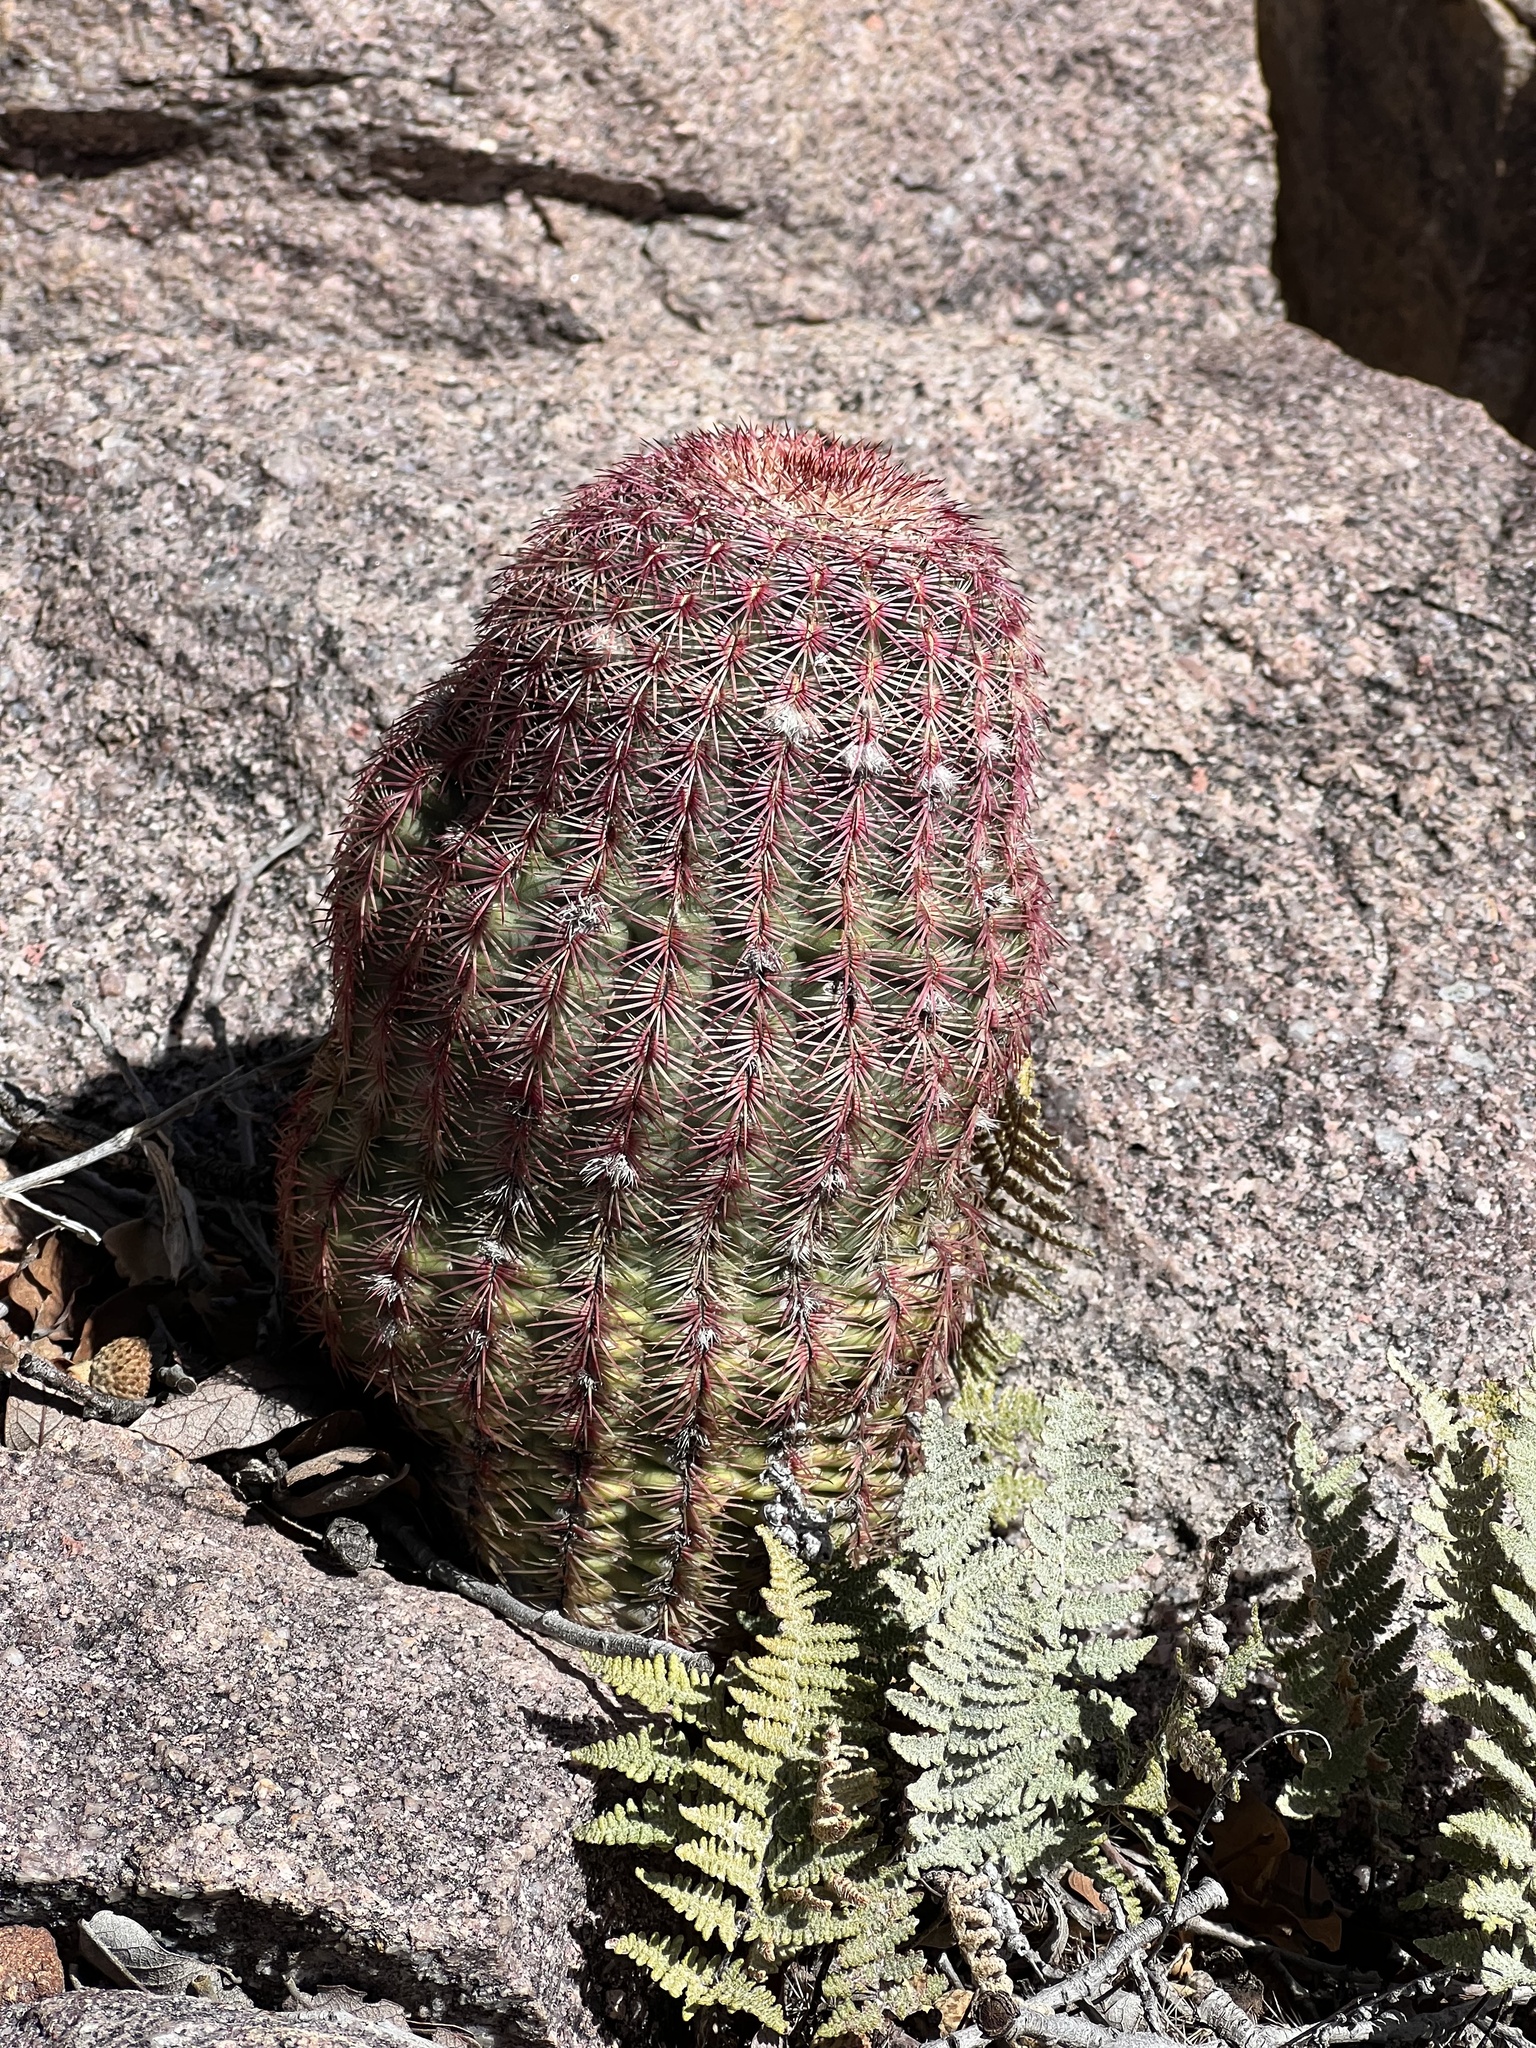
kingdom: Plantae
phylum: Tracheophyta
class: Magnoliopsida
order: Caryophyllales
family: Cactaceae
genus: Echinocereus
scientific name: Echinocereus rigidissimus
